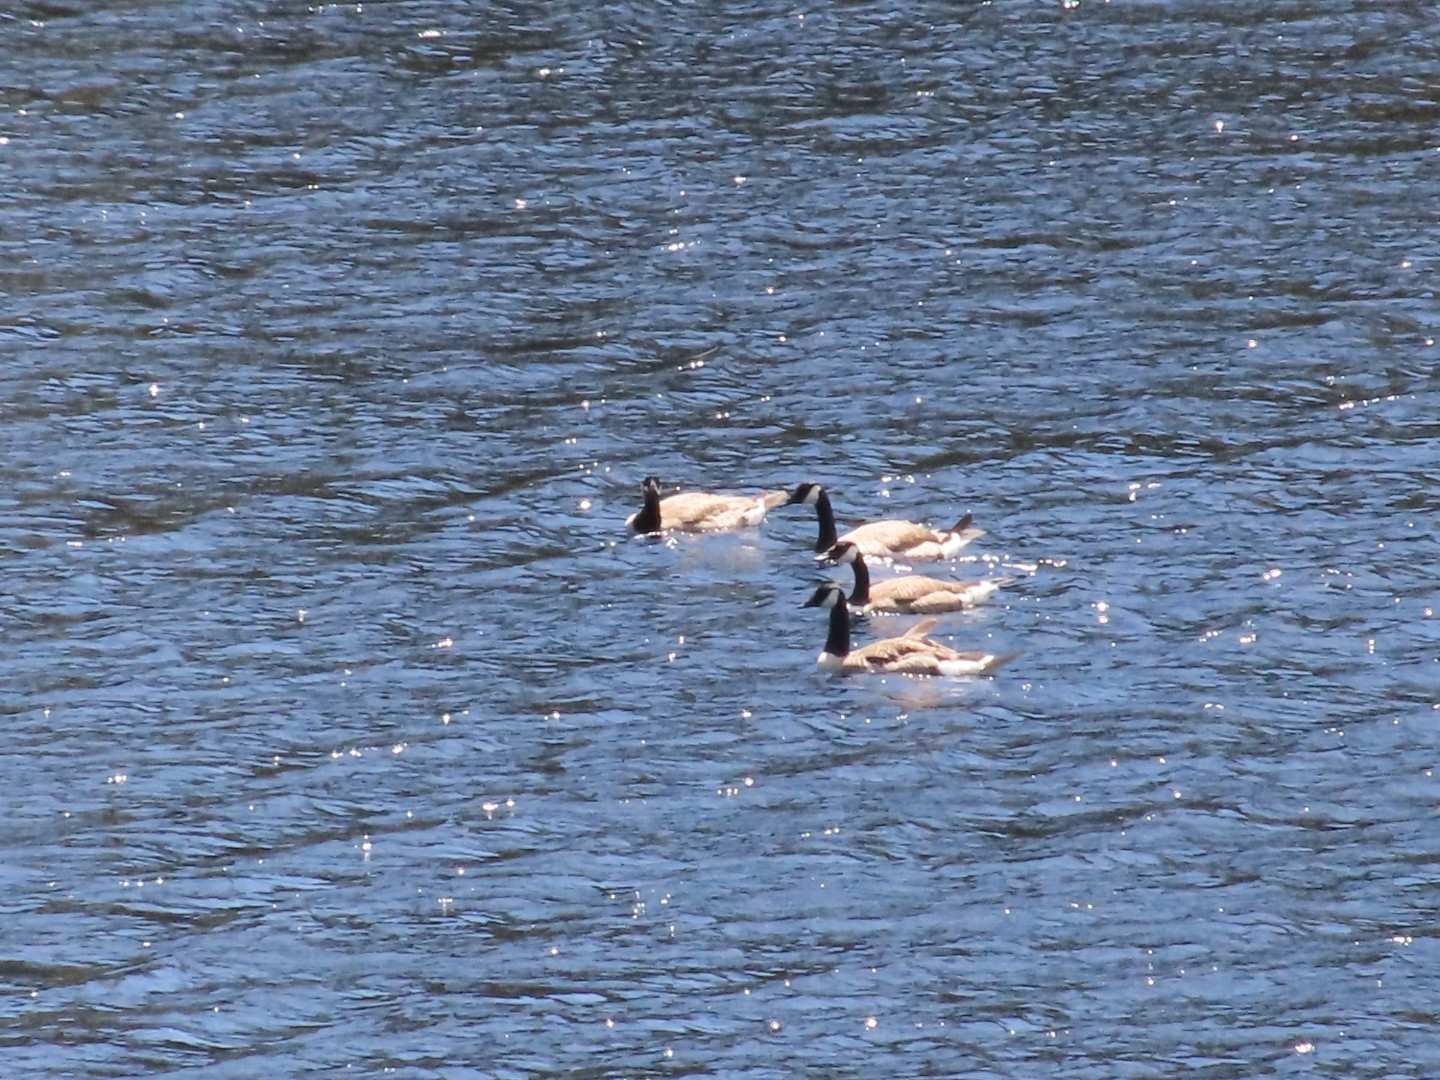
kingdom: Animalia
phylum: Chordata
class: Aves
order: Anseriformes
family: Anatidae
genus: Branta
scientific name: Branta canadensis
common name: Canada goose
